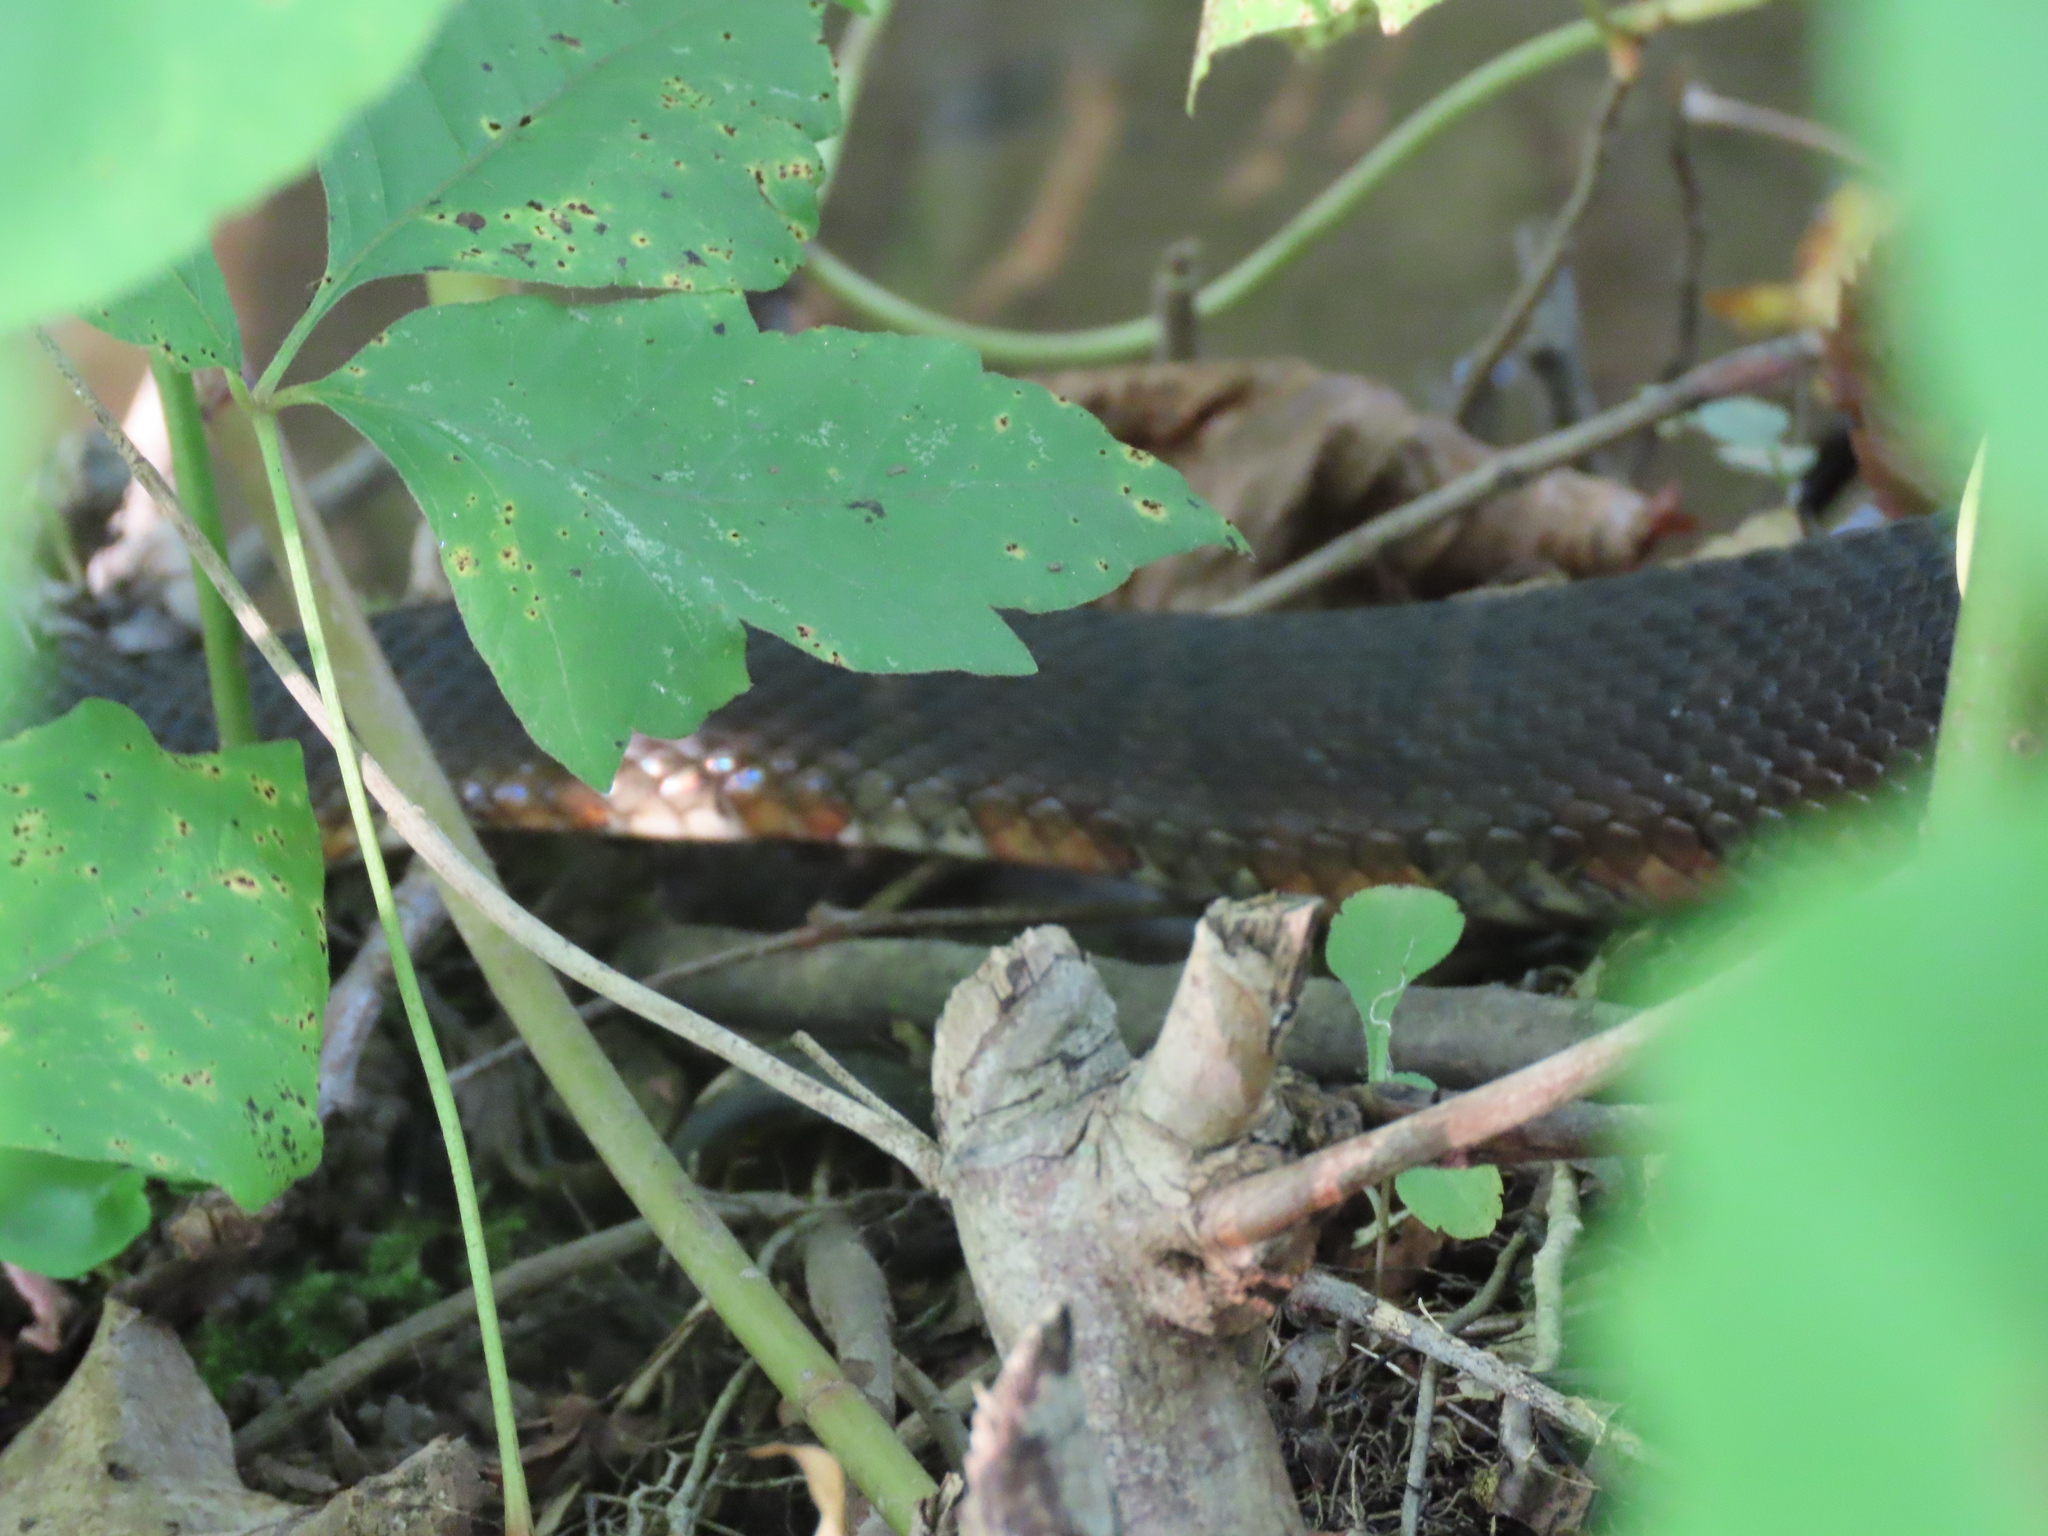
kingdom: Animalia
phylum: Chordata
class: Squamata
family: Colubridae
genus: Nerodia
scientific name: Nerodia sipedon
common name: Northern water snake
